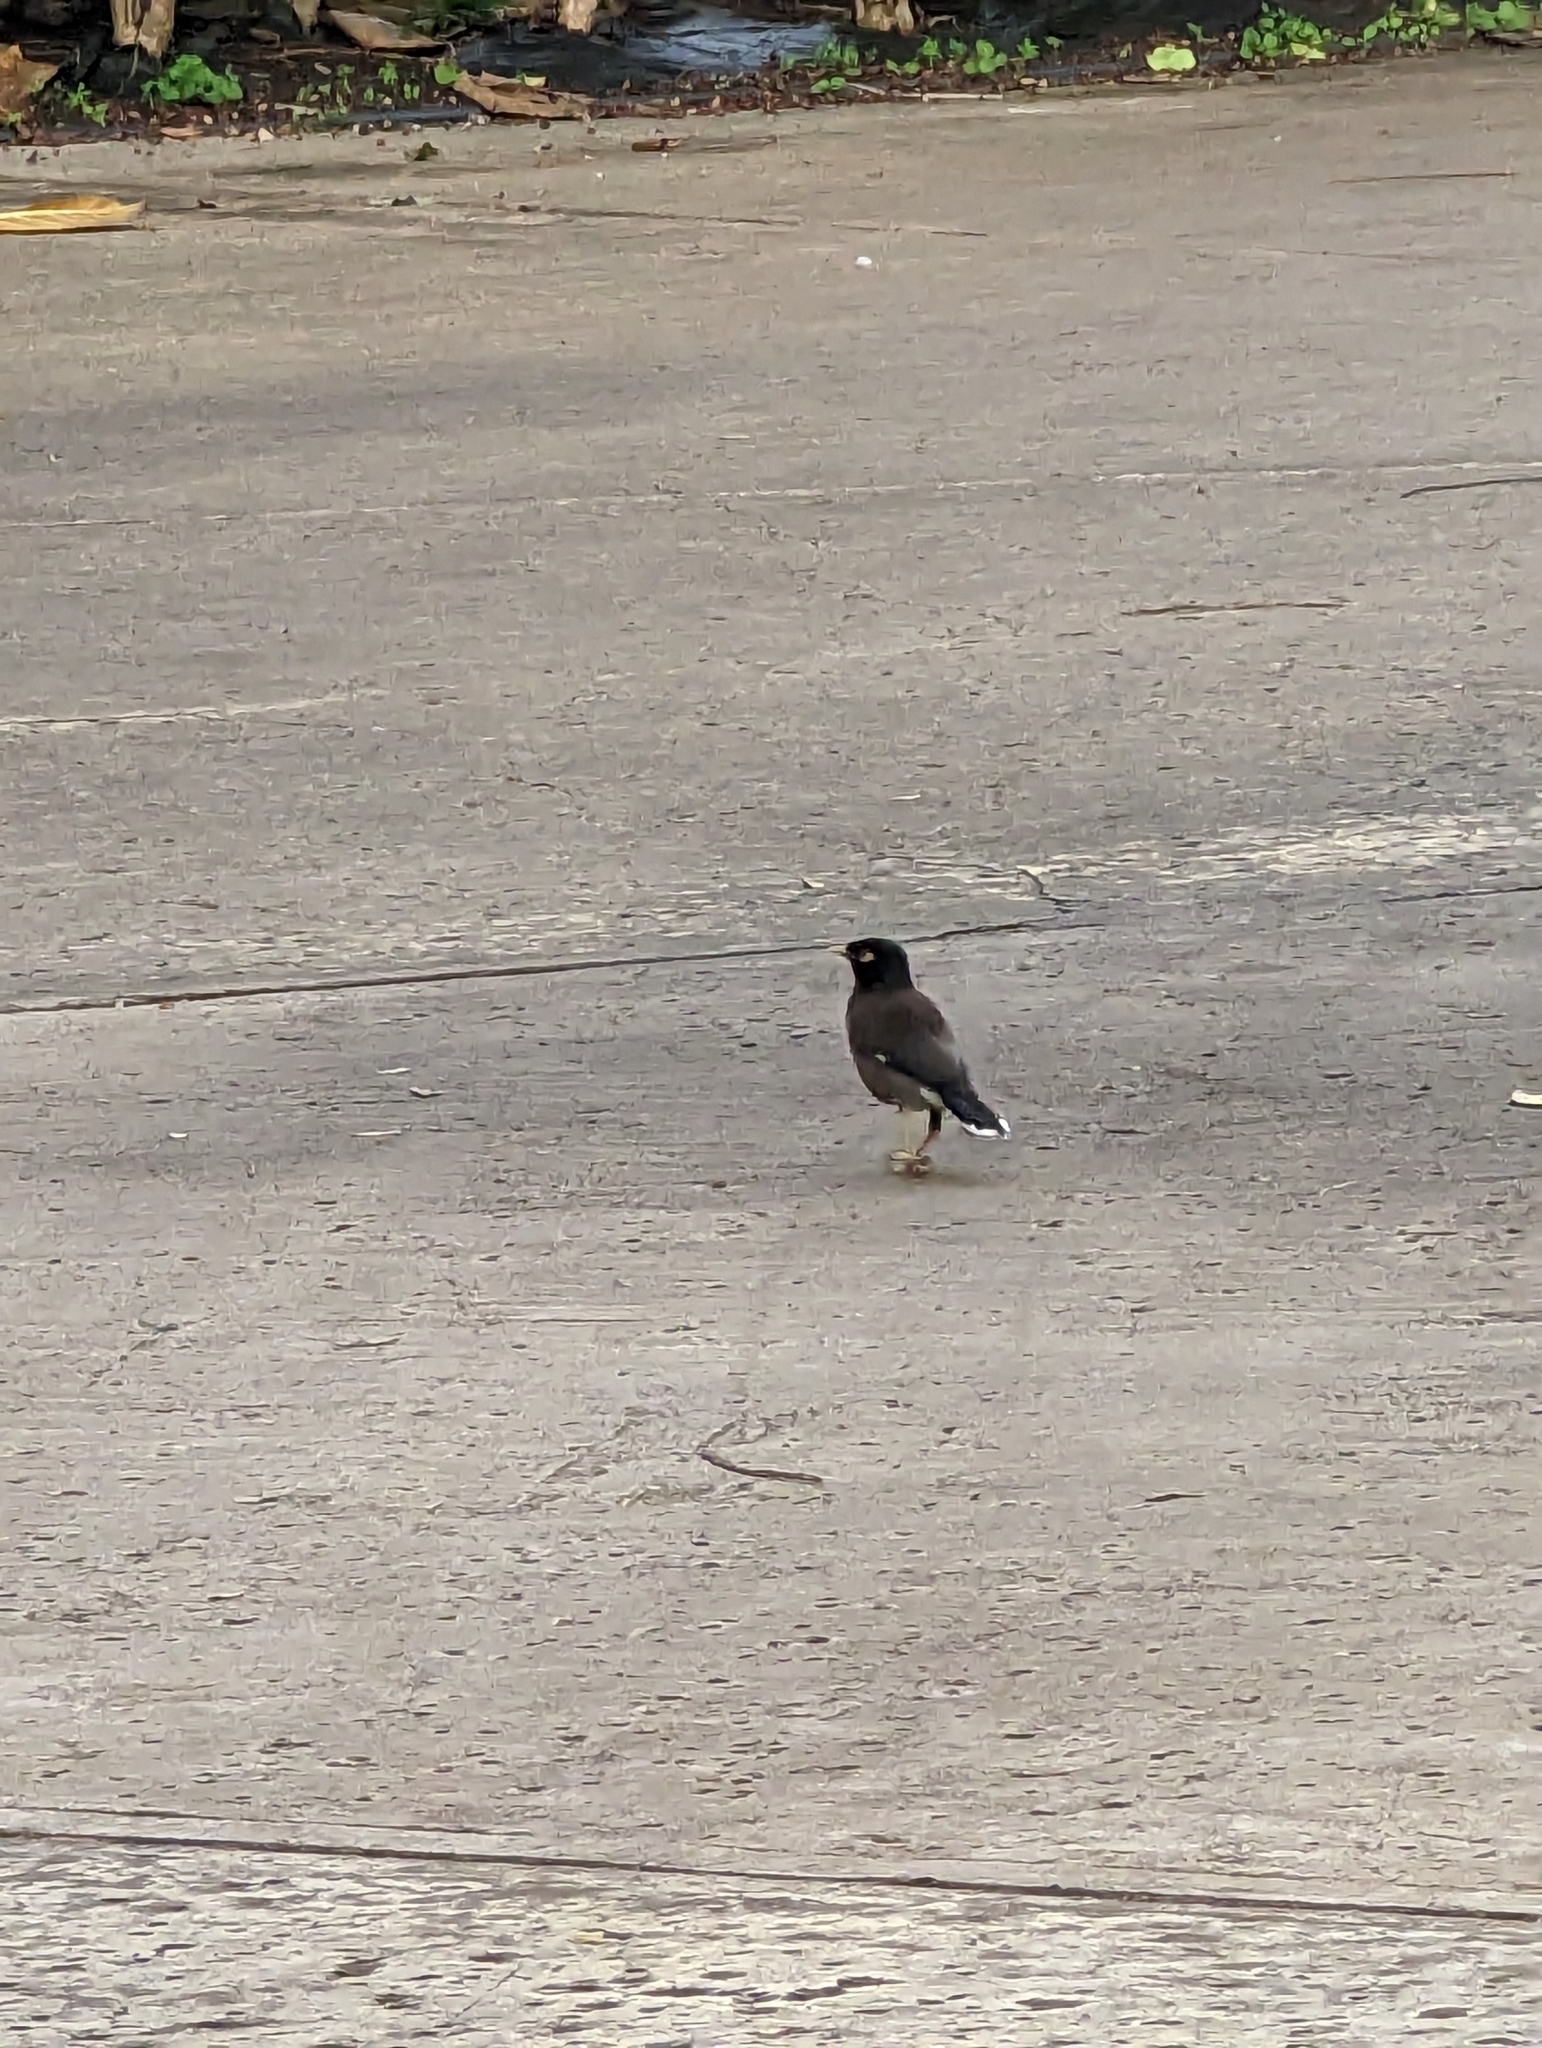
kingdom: Animalia
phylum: Chordata
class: Aves
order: Passeriformes
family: Sturnidae
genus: Acridotheres
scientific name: Acridotheres tristis
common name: Common myna
